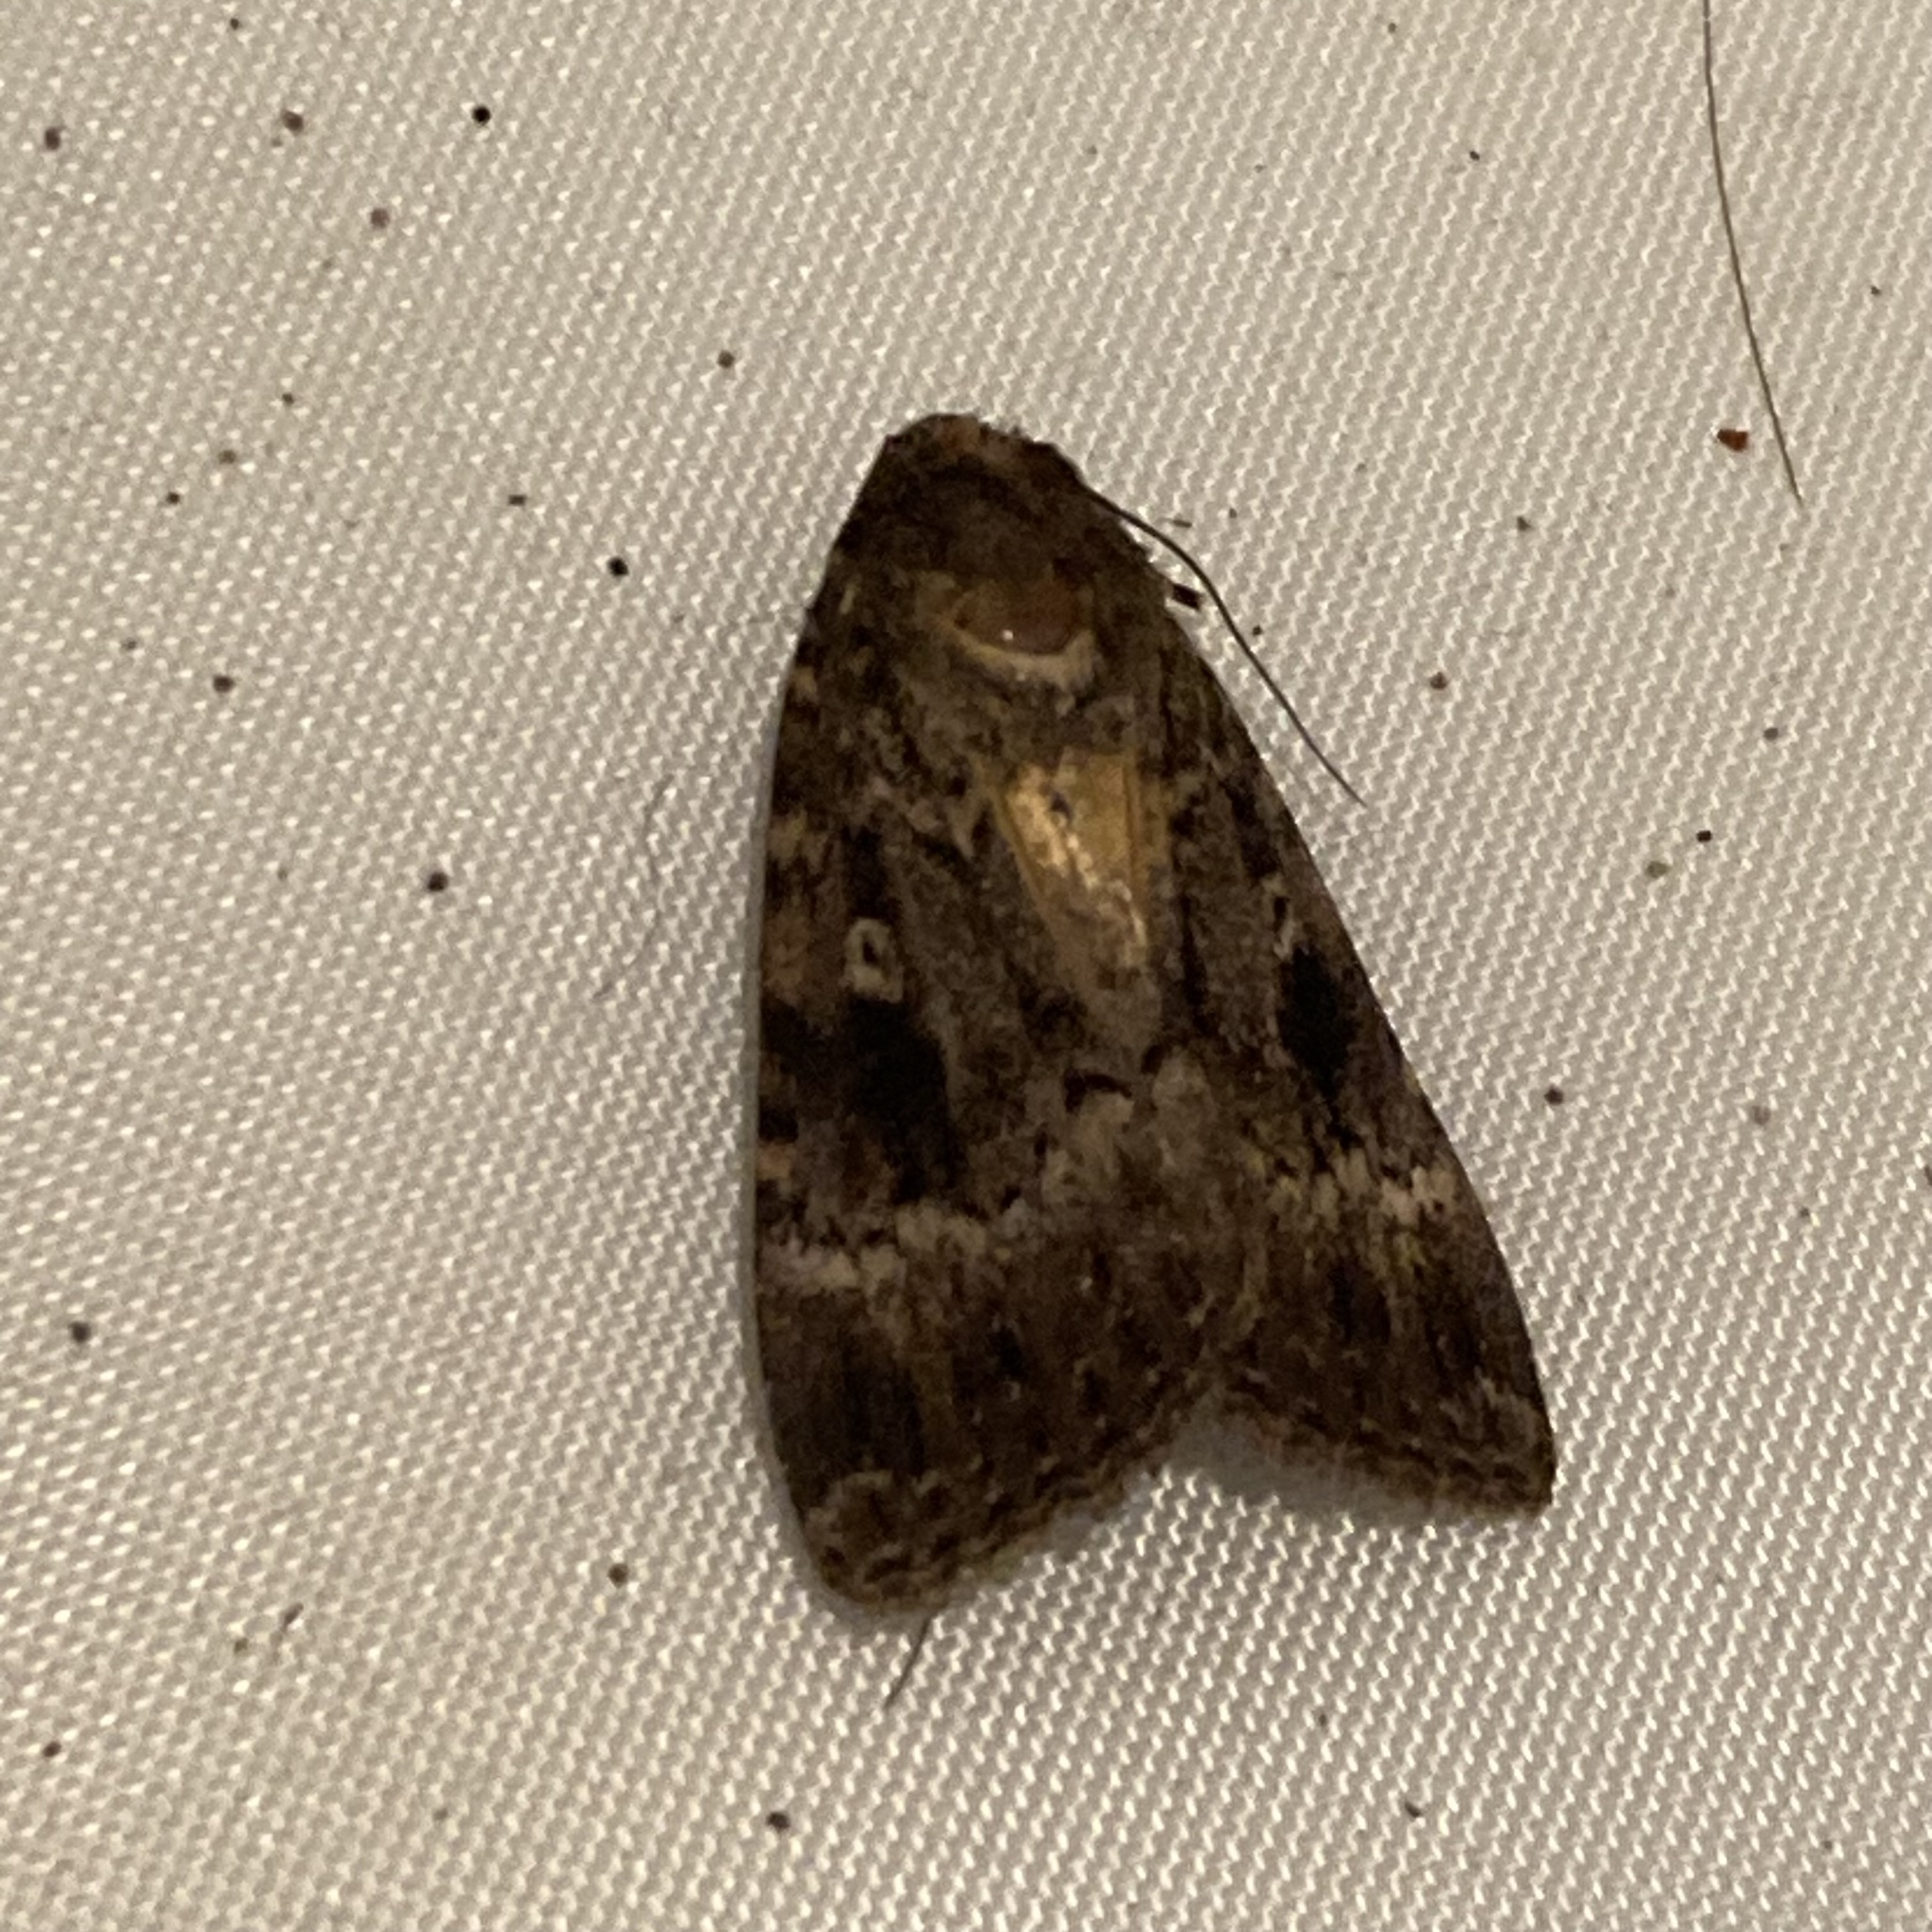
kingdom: Animalia
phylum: Arthropoda
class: Insecta
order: Lepidoptera
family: Noctuidae
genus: Amphipyra
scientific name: Amphipyra berbera
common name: Svensson's copper underwing
